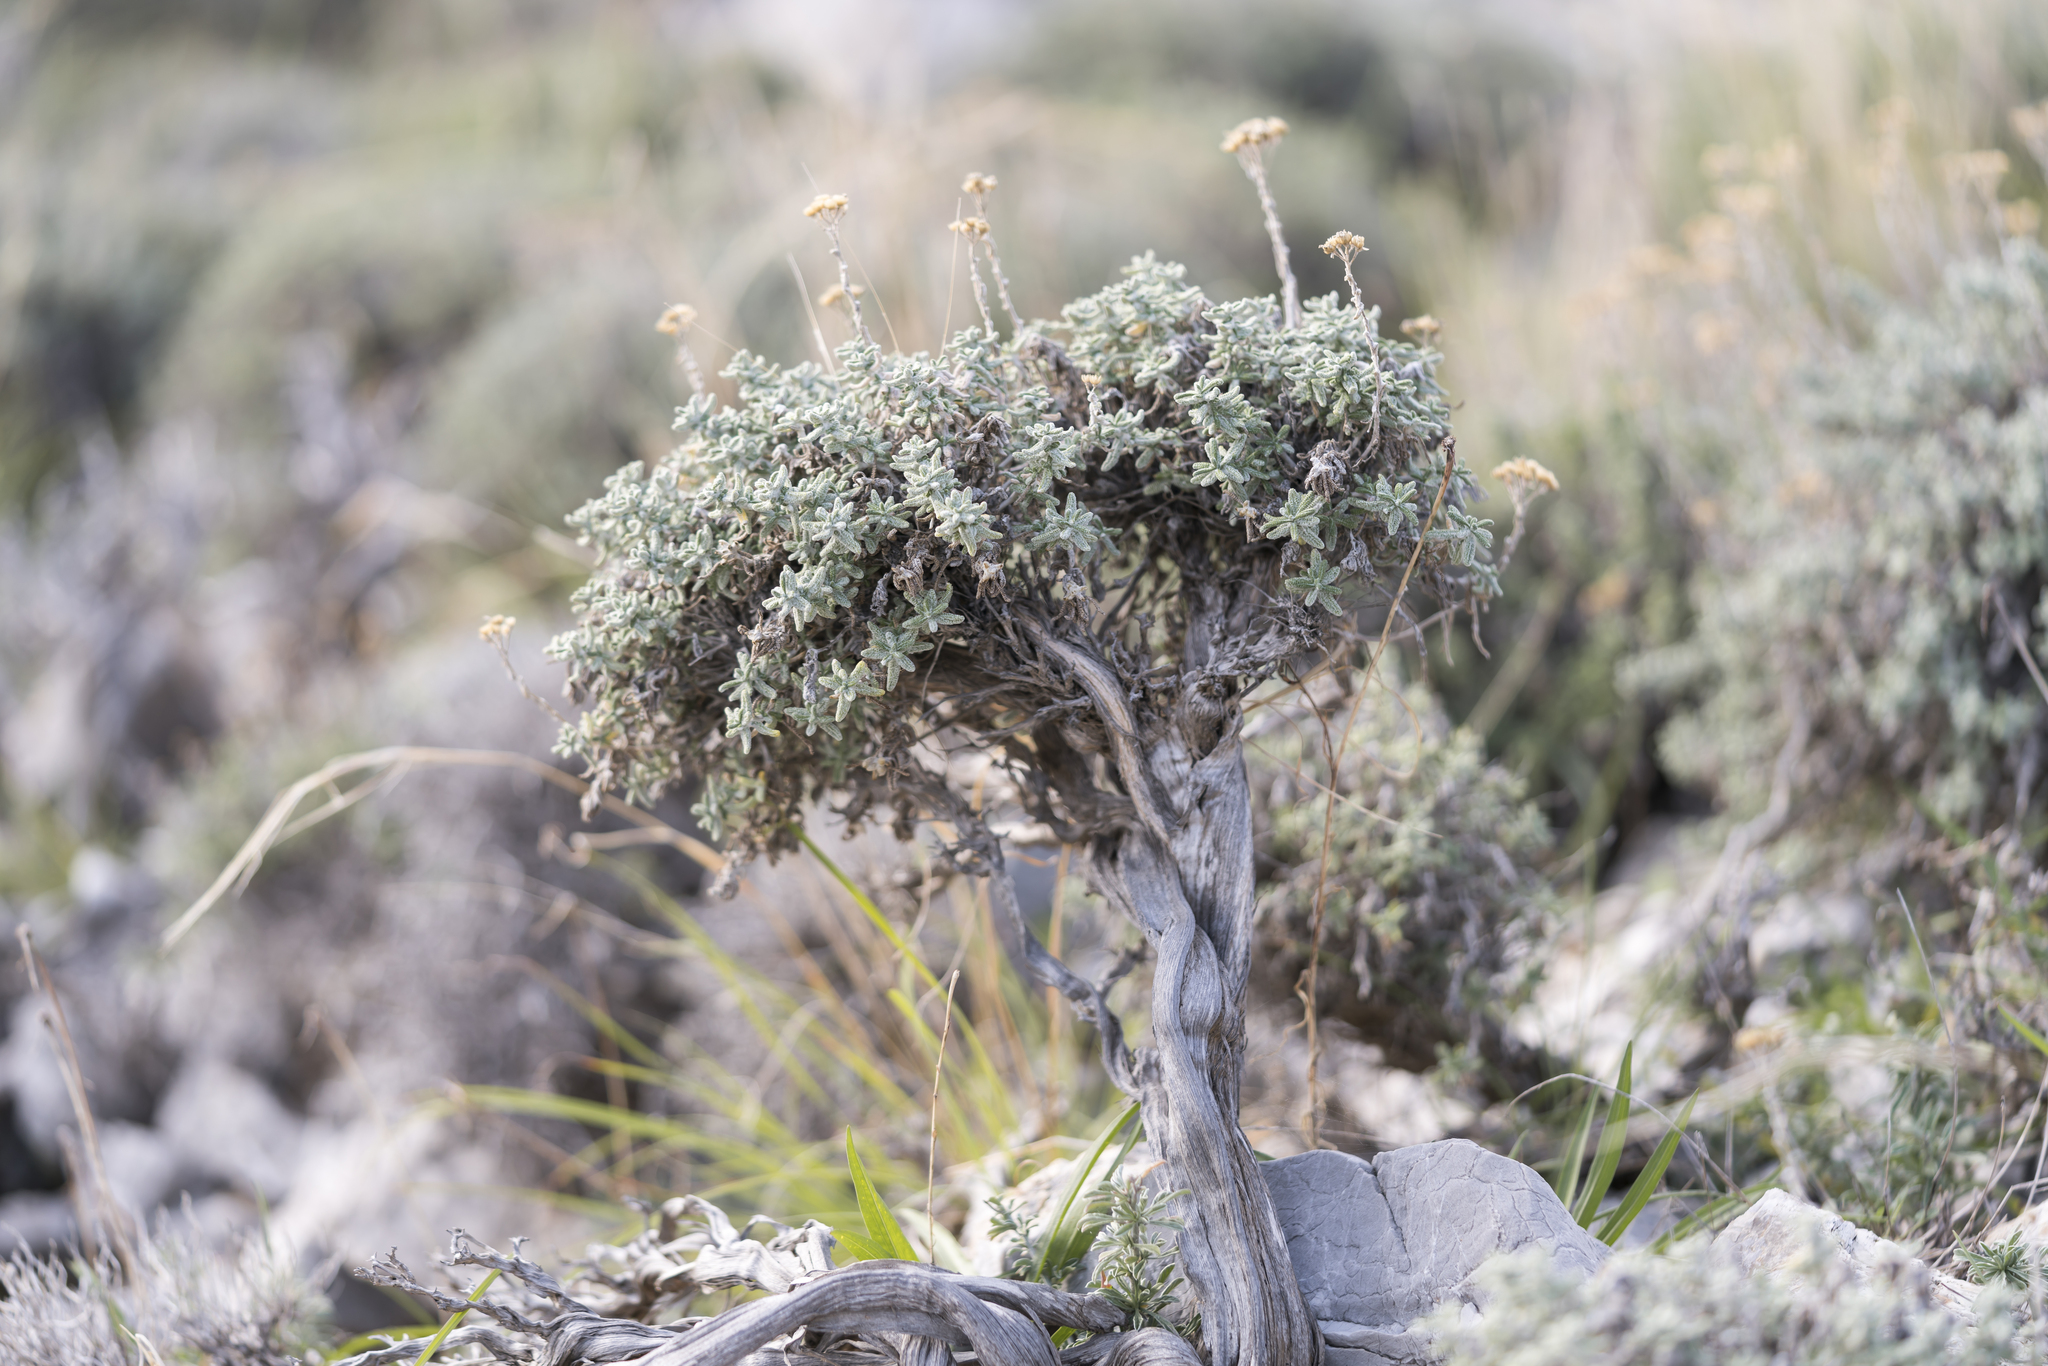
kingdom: Plantae
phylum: Tracheophyta
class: Magnoliopsida
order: Asterales
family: Asteraceae
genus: Achillea
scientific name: Achillea cretica
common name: Chamomile-leaved lavender-cotton
